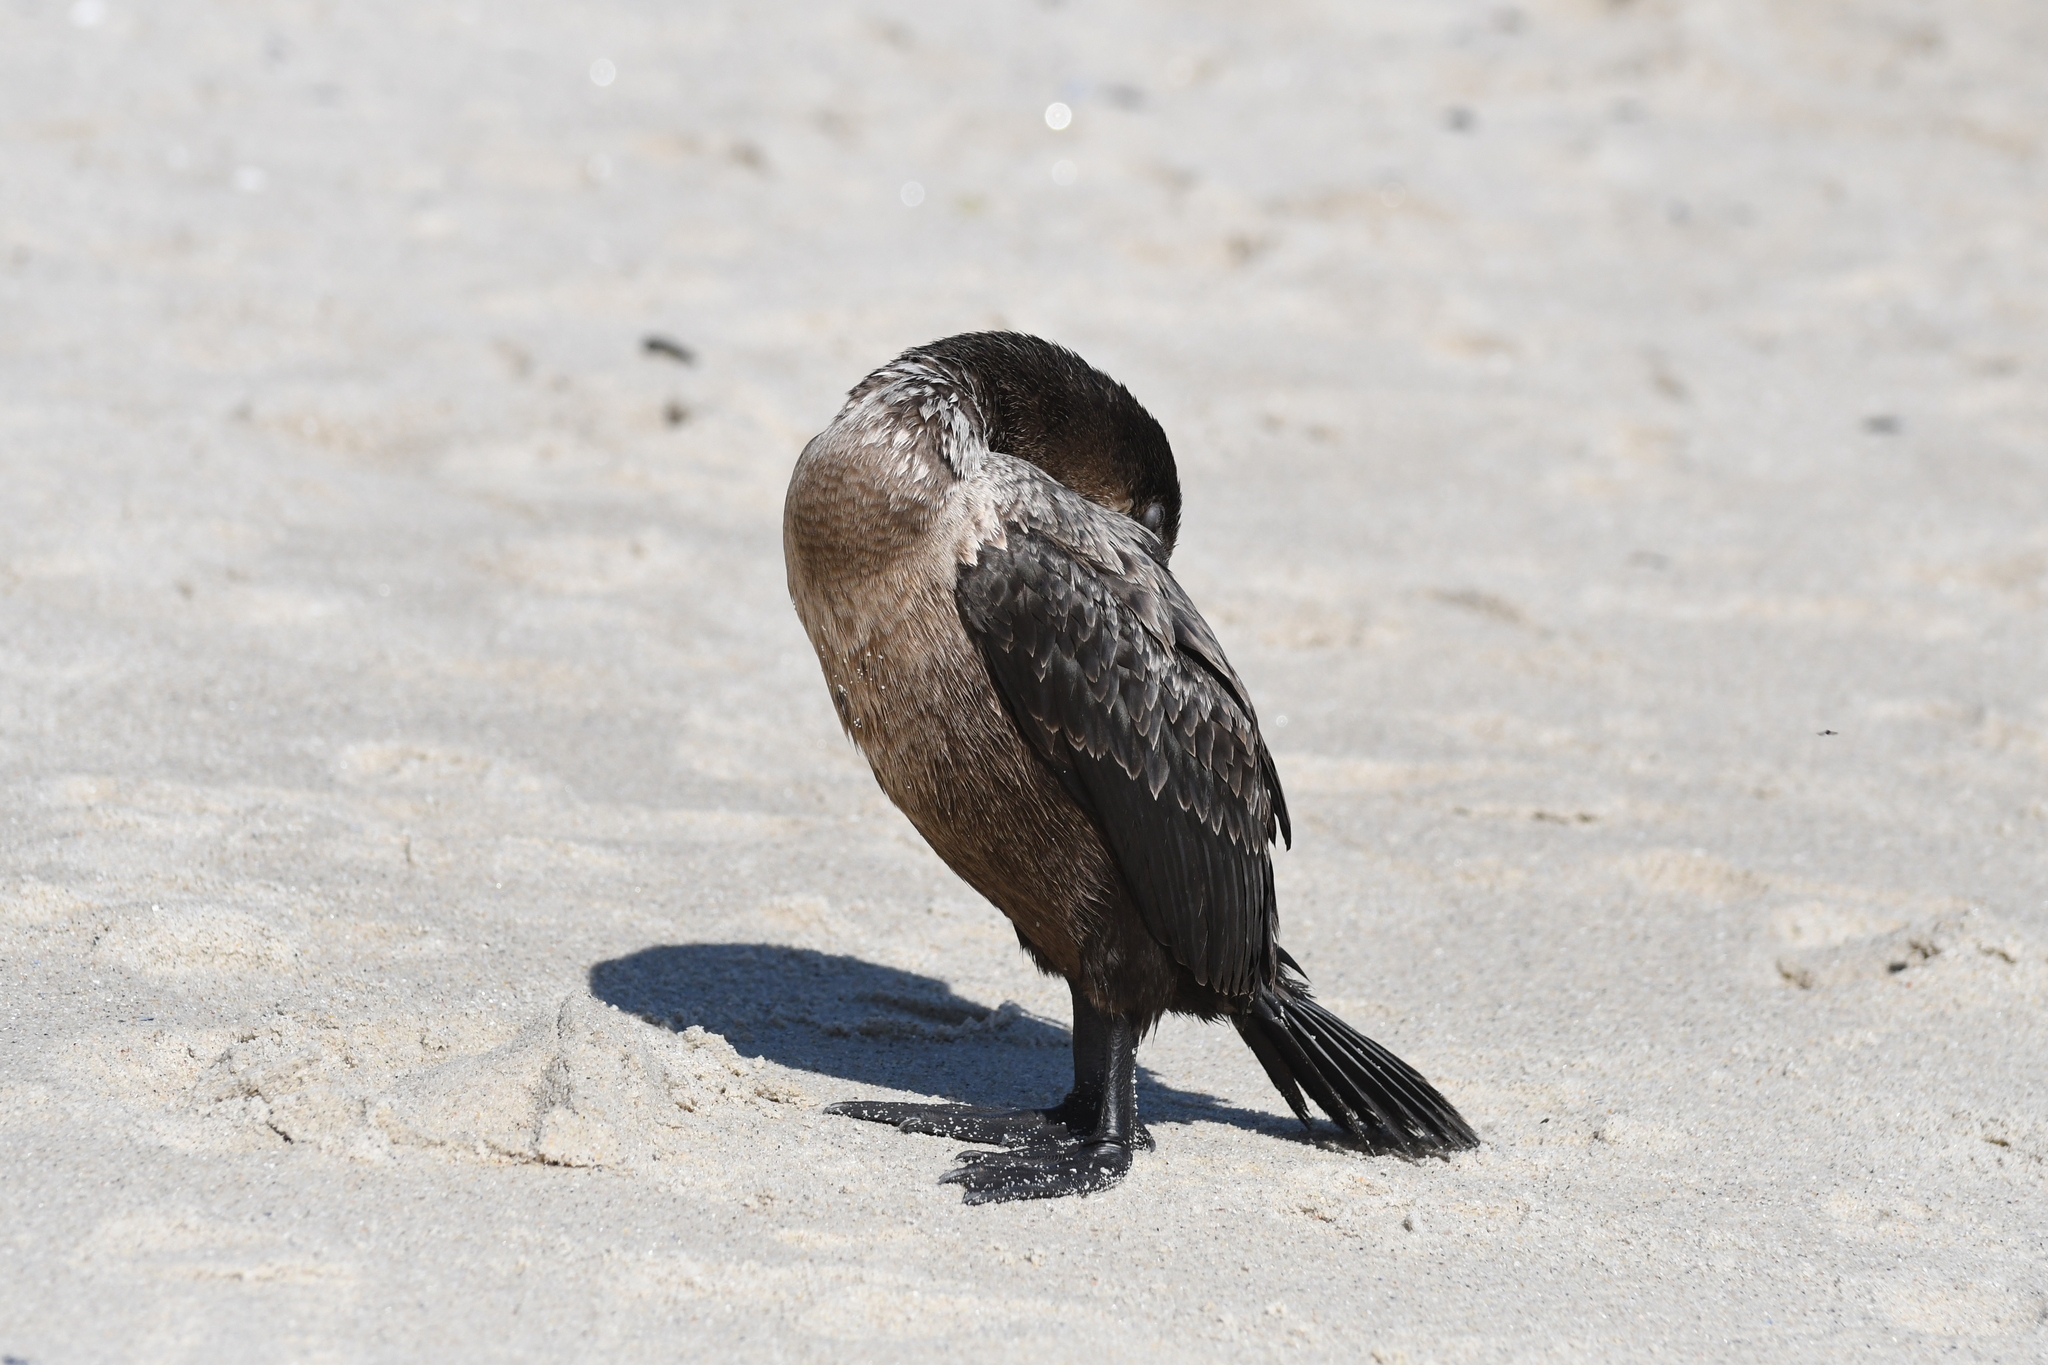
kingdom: Animalia
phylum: Chordata
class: Aves
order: Suliformes
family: Phalacrocoracidae
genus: Urile
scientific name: Urile penicillatus
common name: Brandt's cormorant
